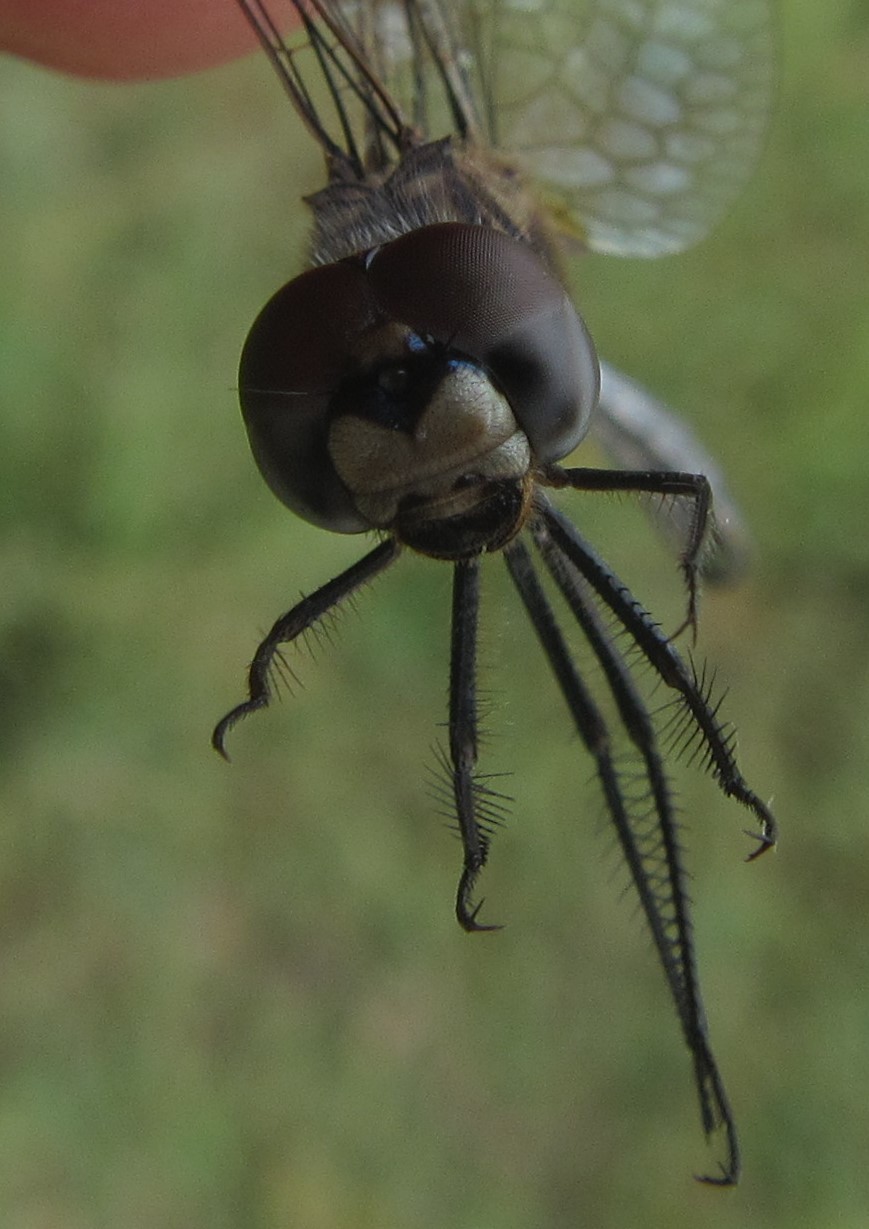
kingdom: Animalia
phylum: Arthropoda
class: Insecta
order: Odonata
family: Libellulidae
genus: Trithemis
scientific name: Trithemis hecate
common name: Silhouette dropwing
